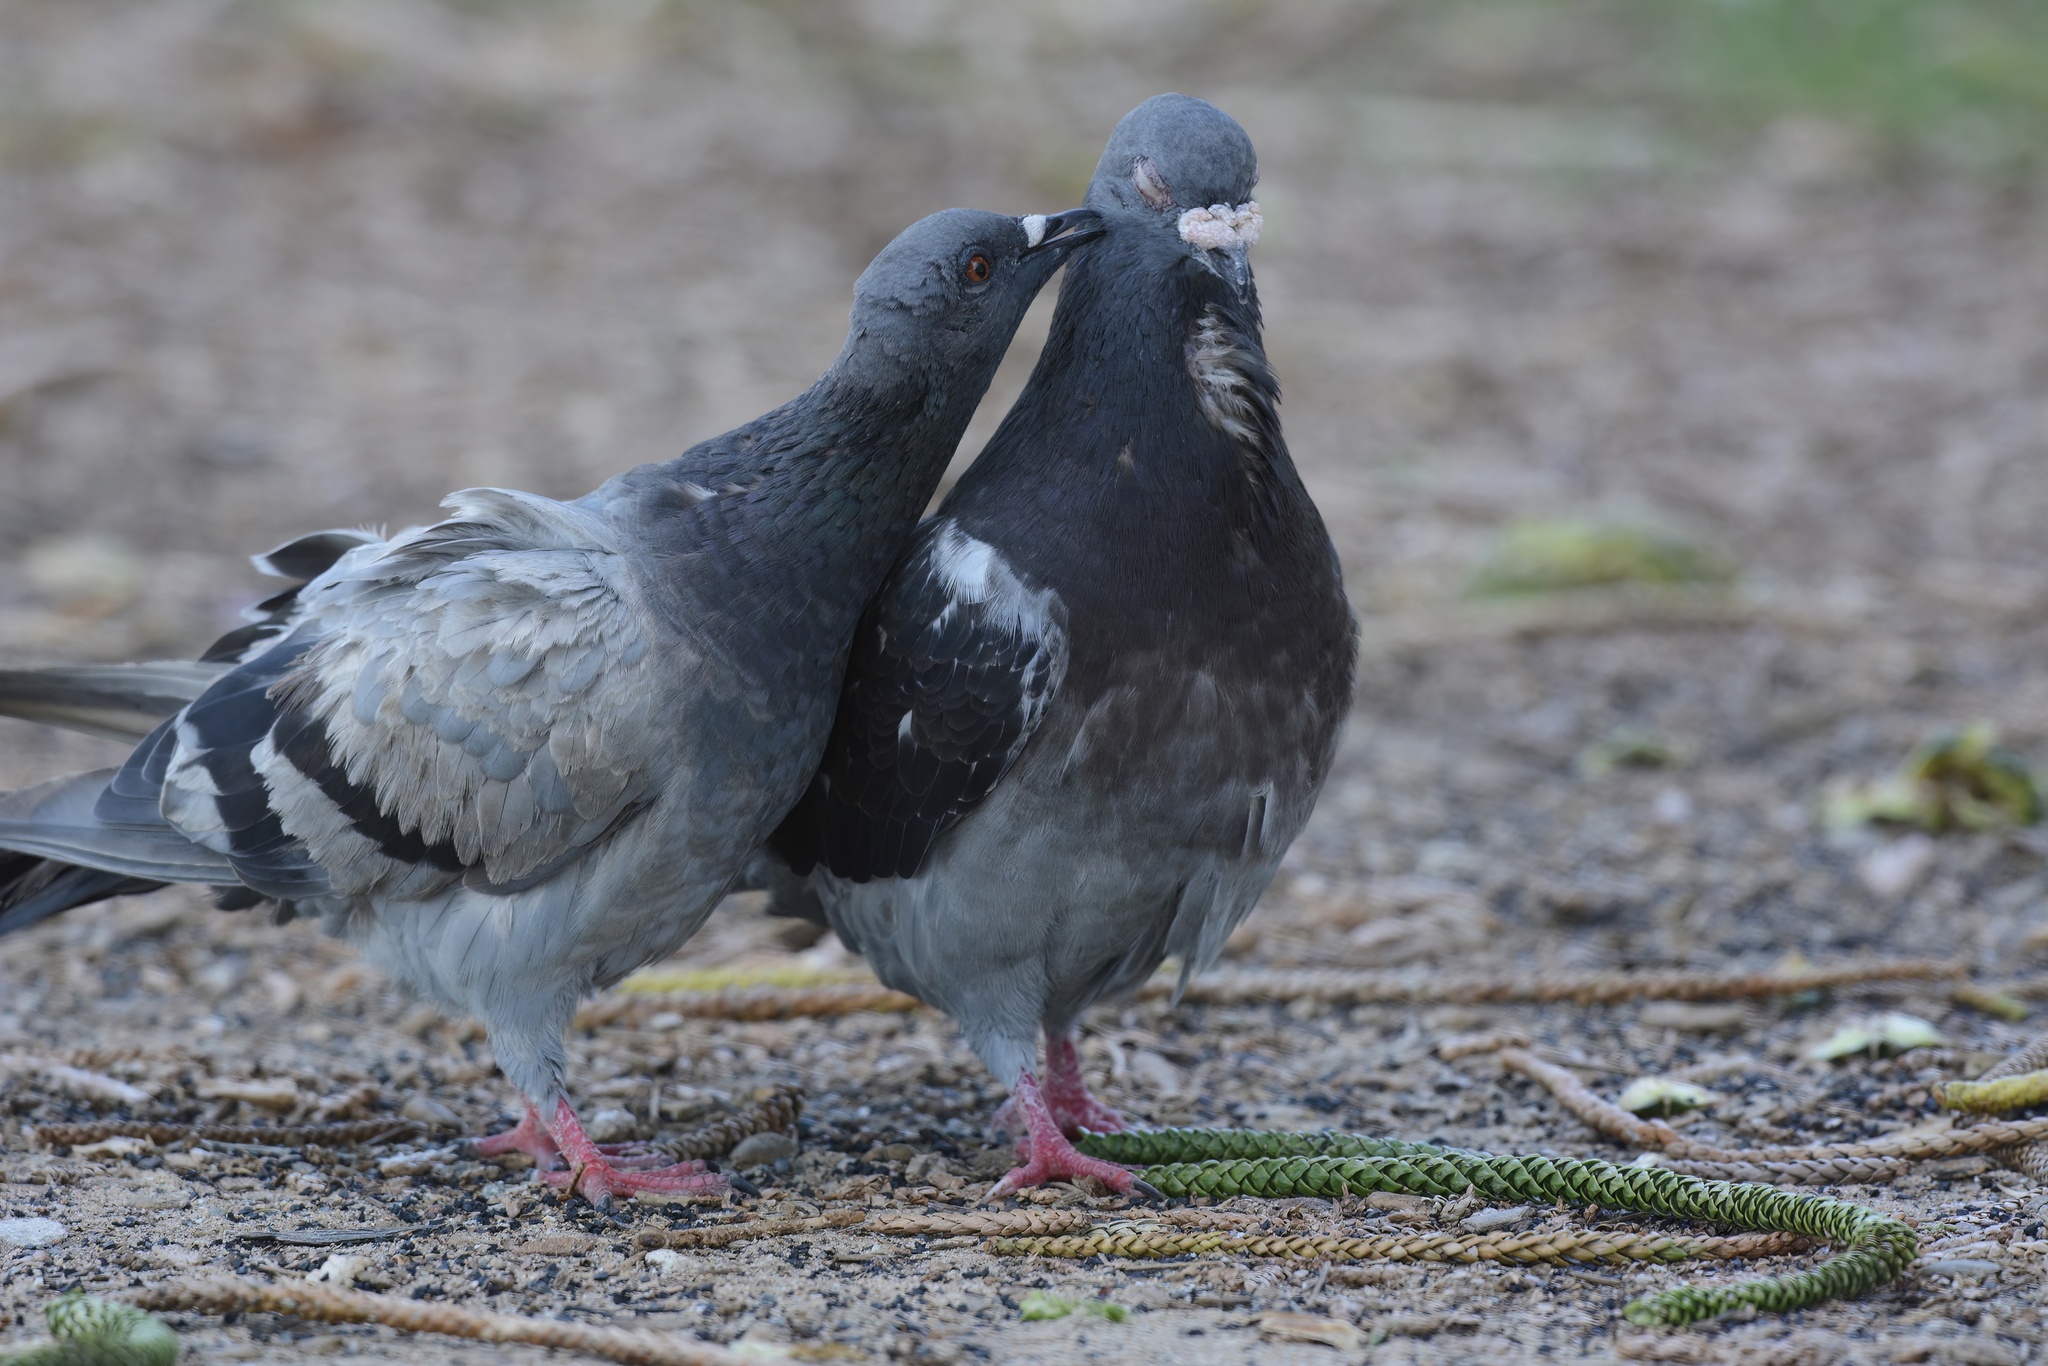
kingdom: Animalia
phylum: Chordata
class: Aves
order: Columbiformes
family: Columbidae
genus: Columba
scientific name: Columba livia
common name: Rock pigeon
